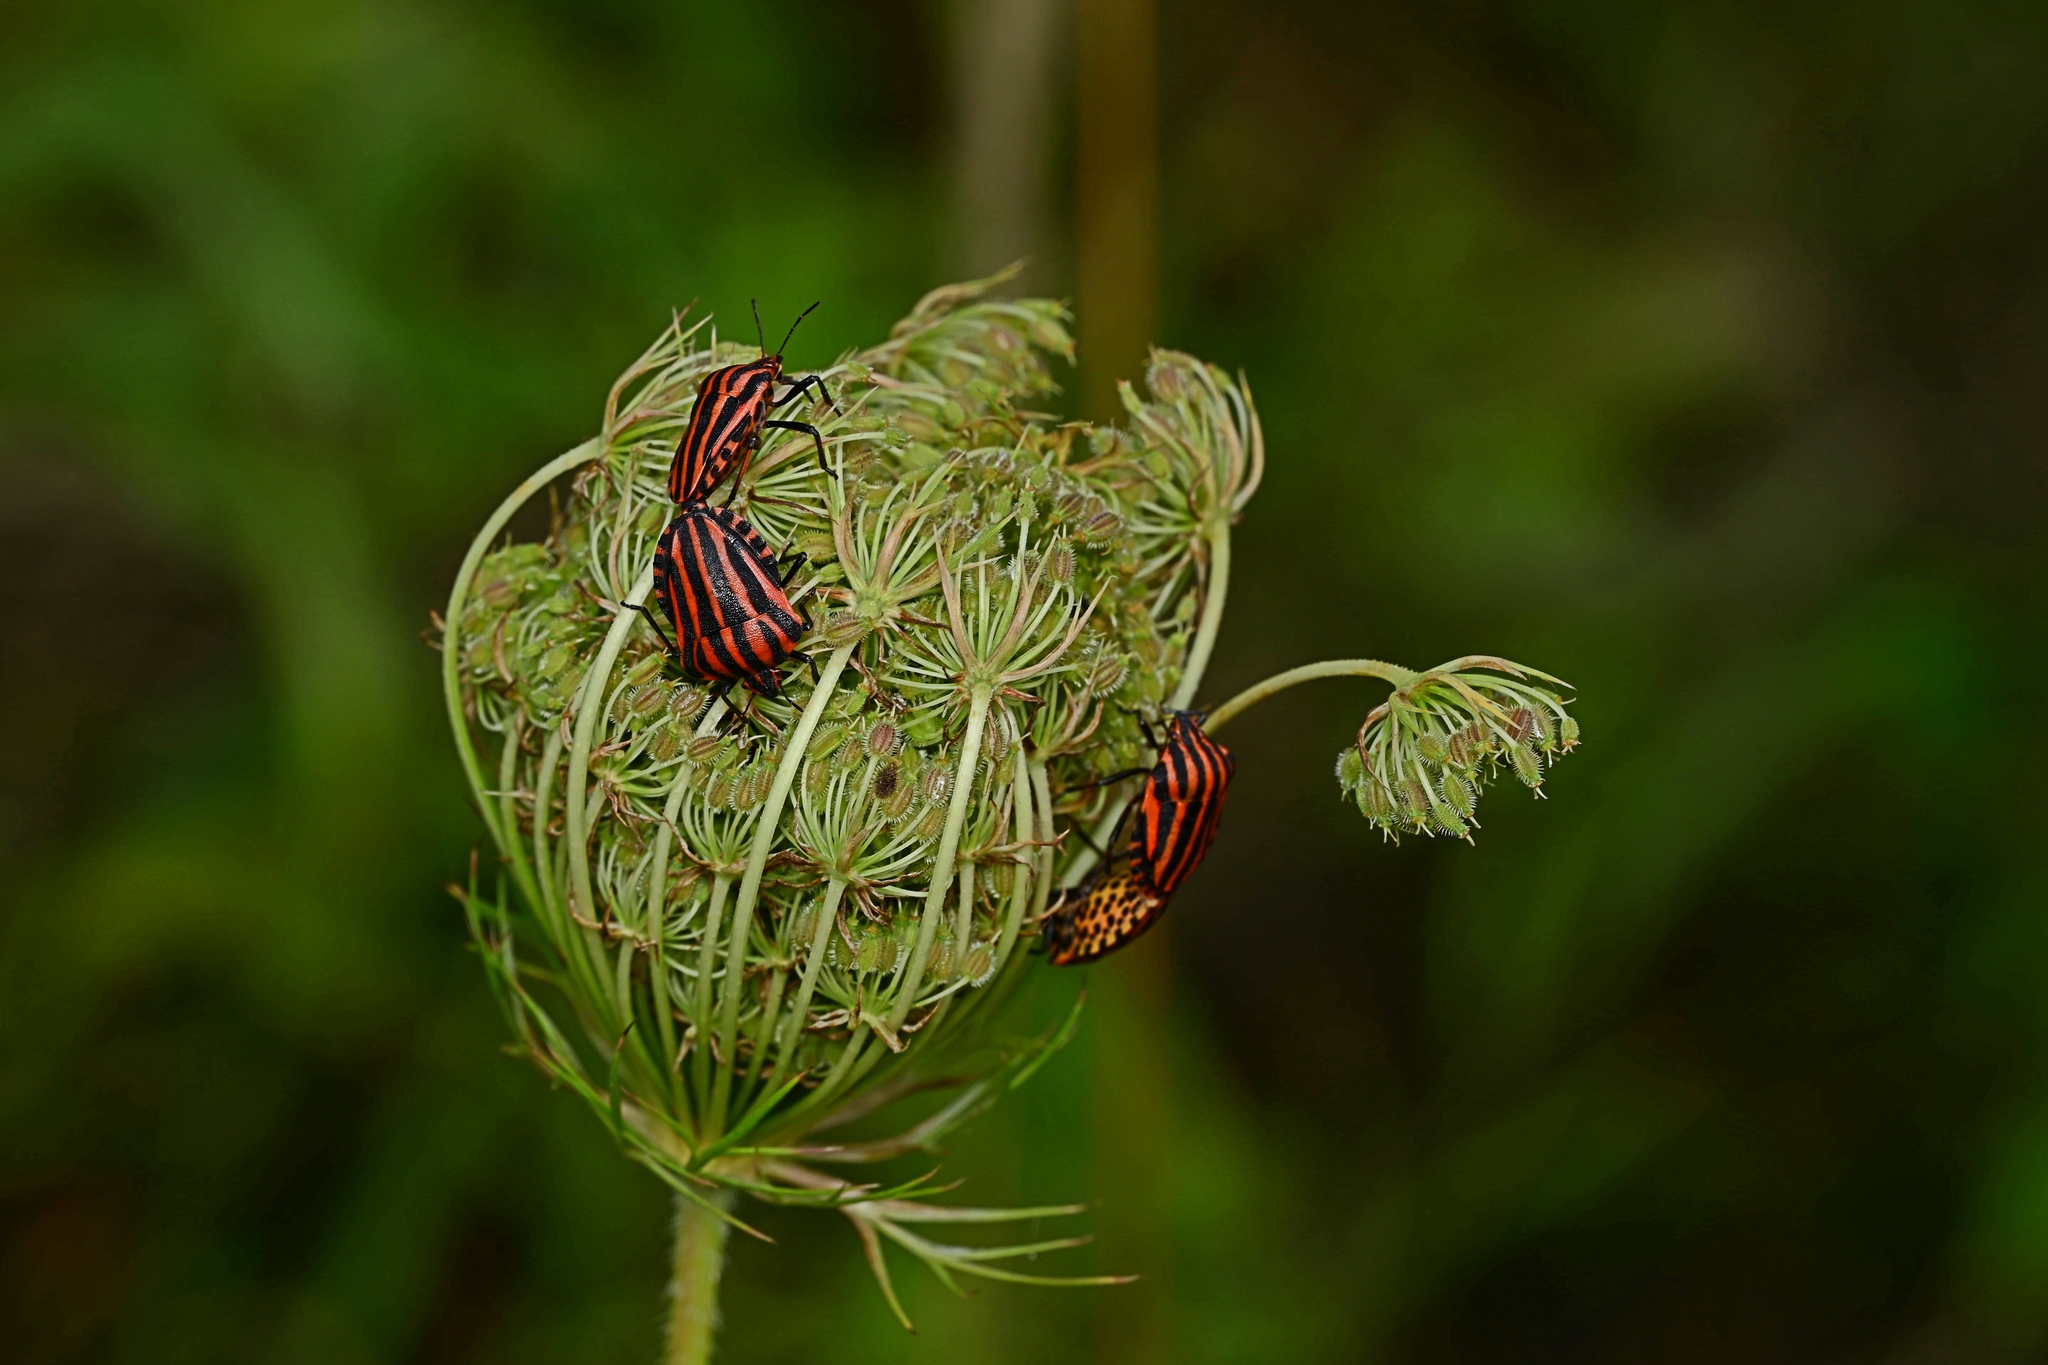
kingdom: Animalia
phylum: Arthropoda
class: Insecta
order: Hemiptera
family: Pentatomidae
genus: Graphosoma
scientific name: Graphosoma italicum
